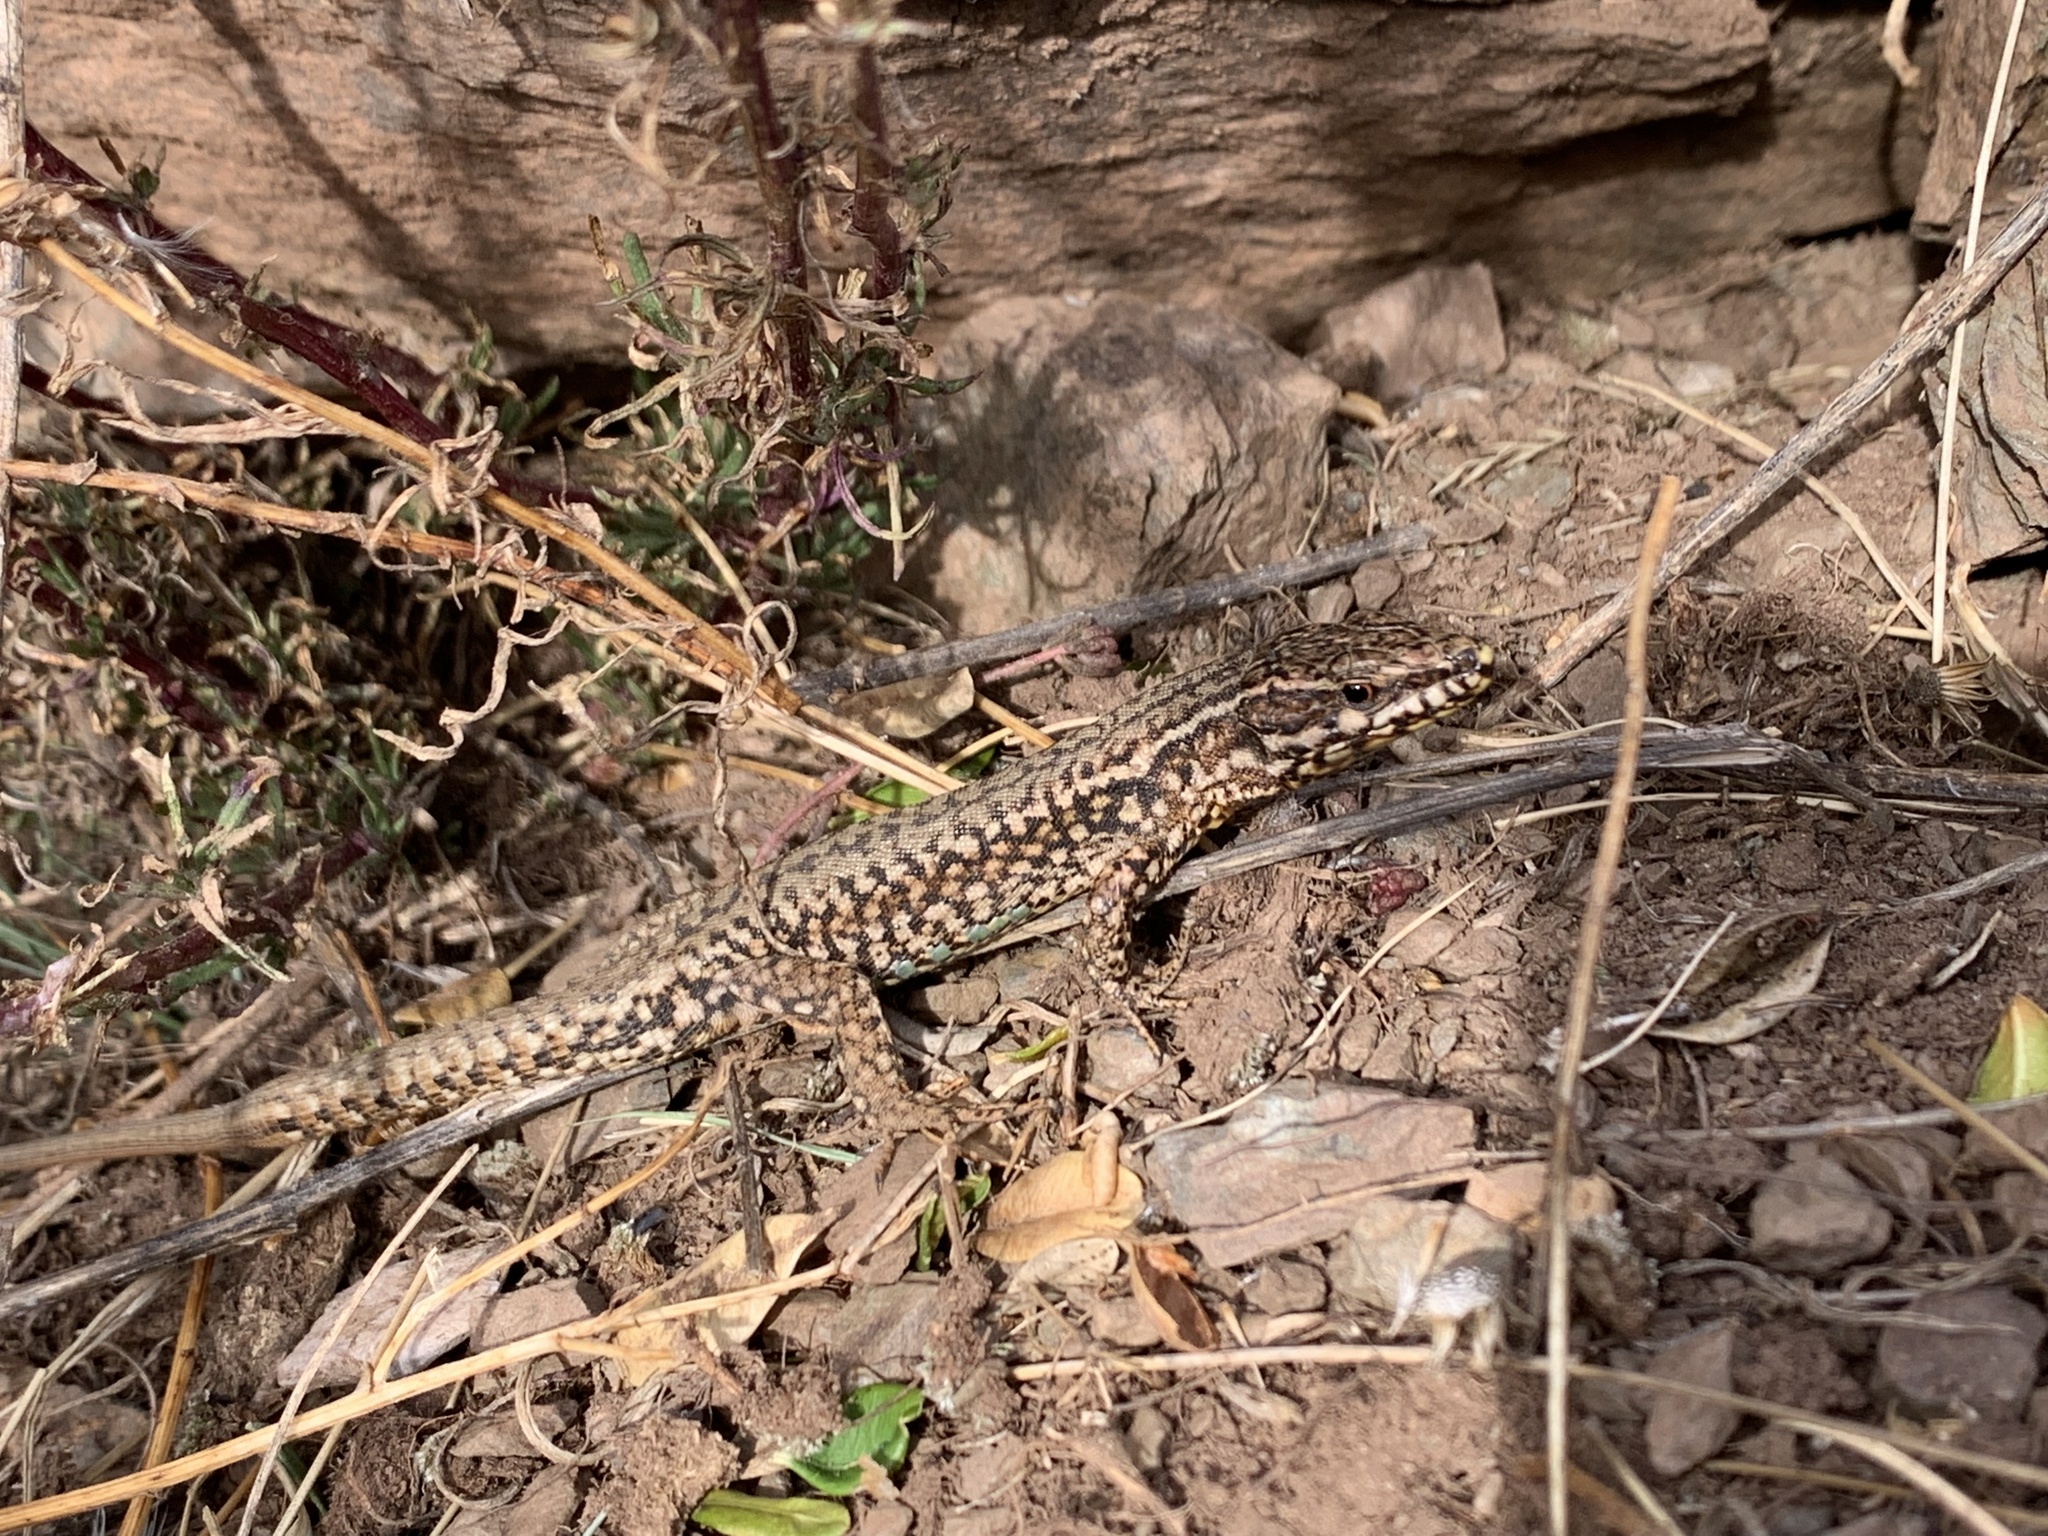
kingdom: Animalia
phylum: Chordata
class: Squamata
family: Lacertidae
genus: Podarcis
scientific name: Podarcis muralis
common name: Common wall lizard
